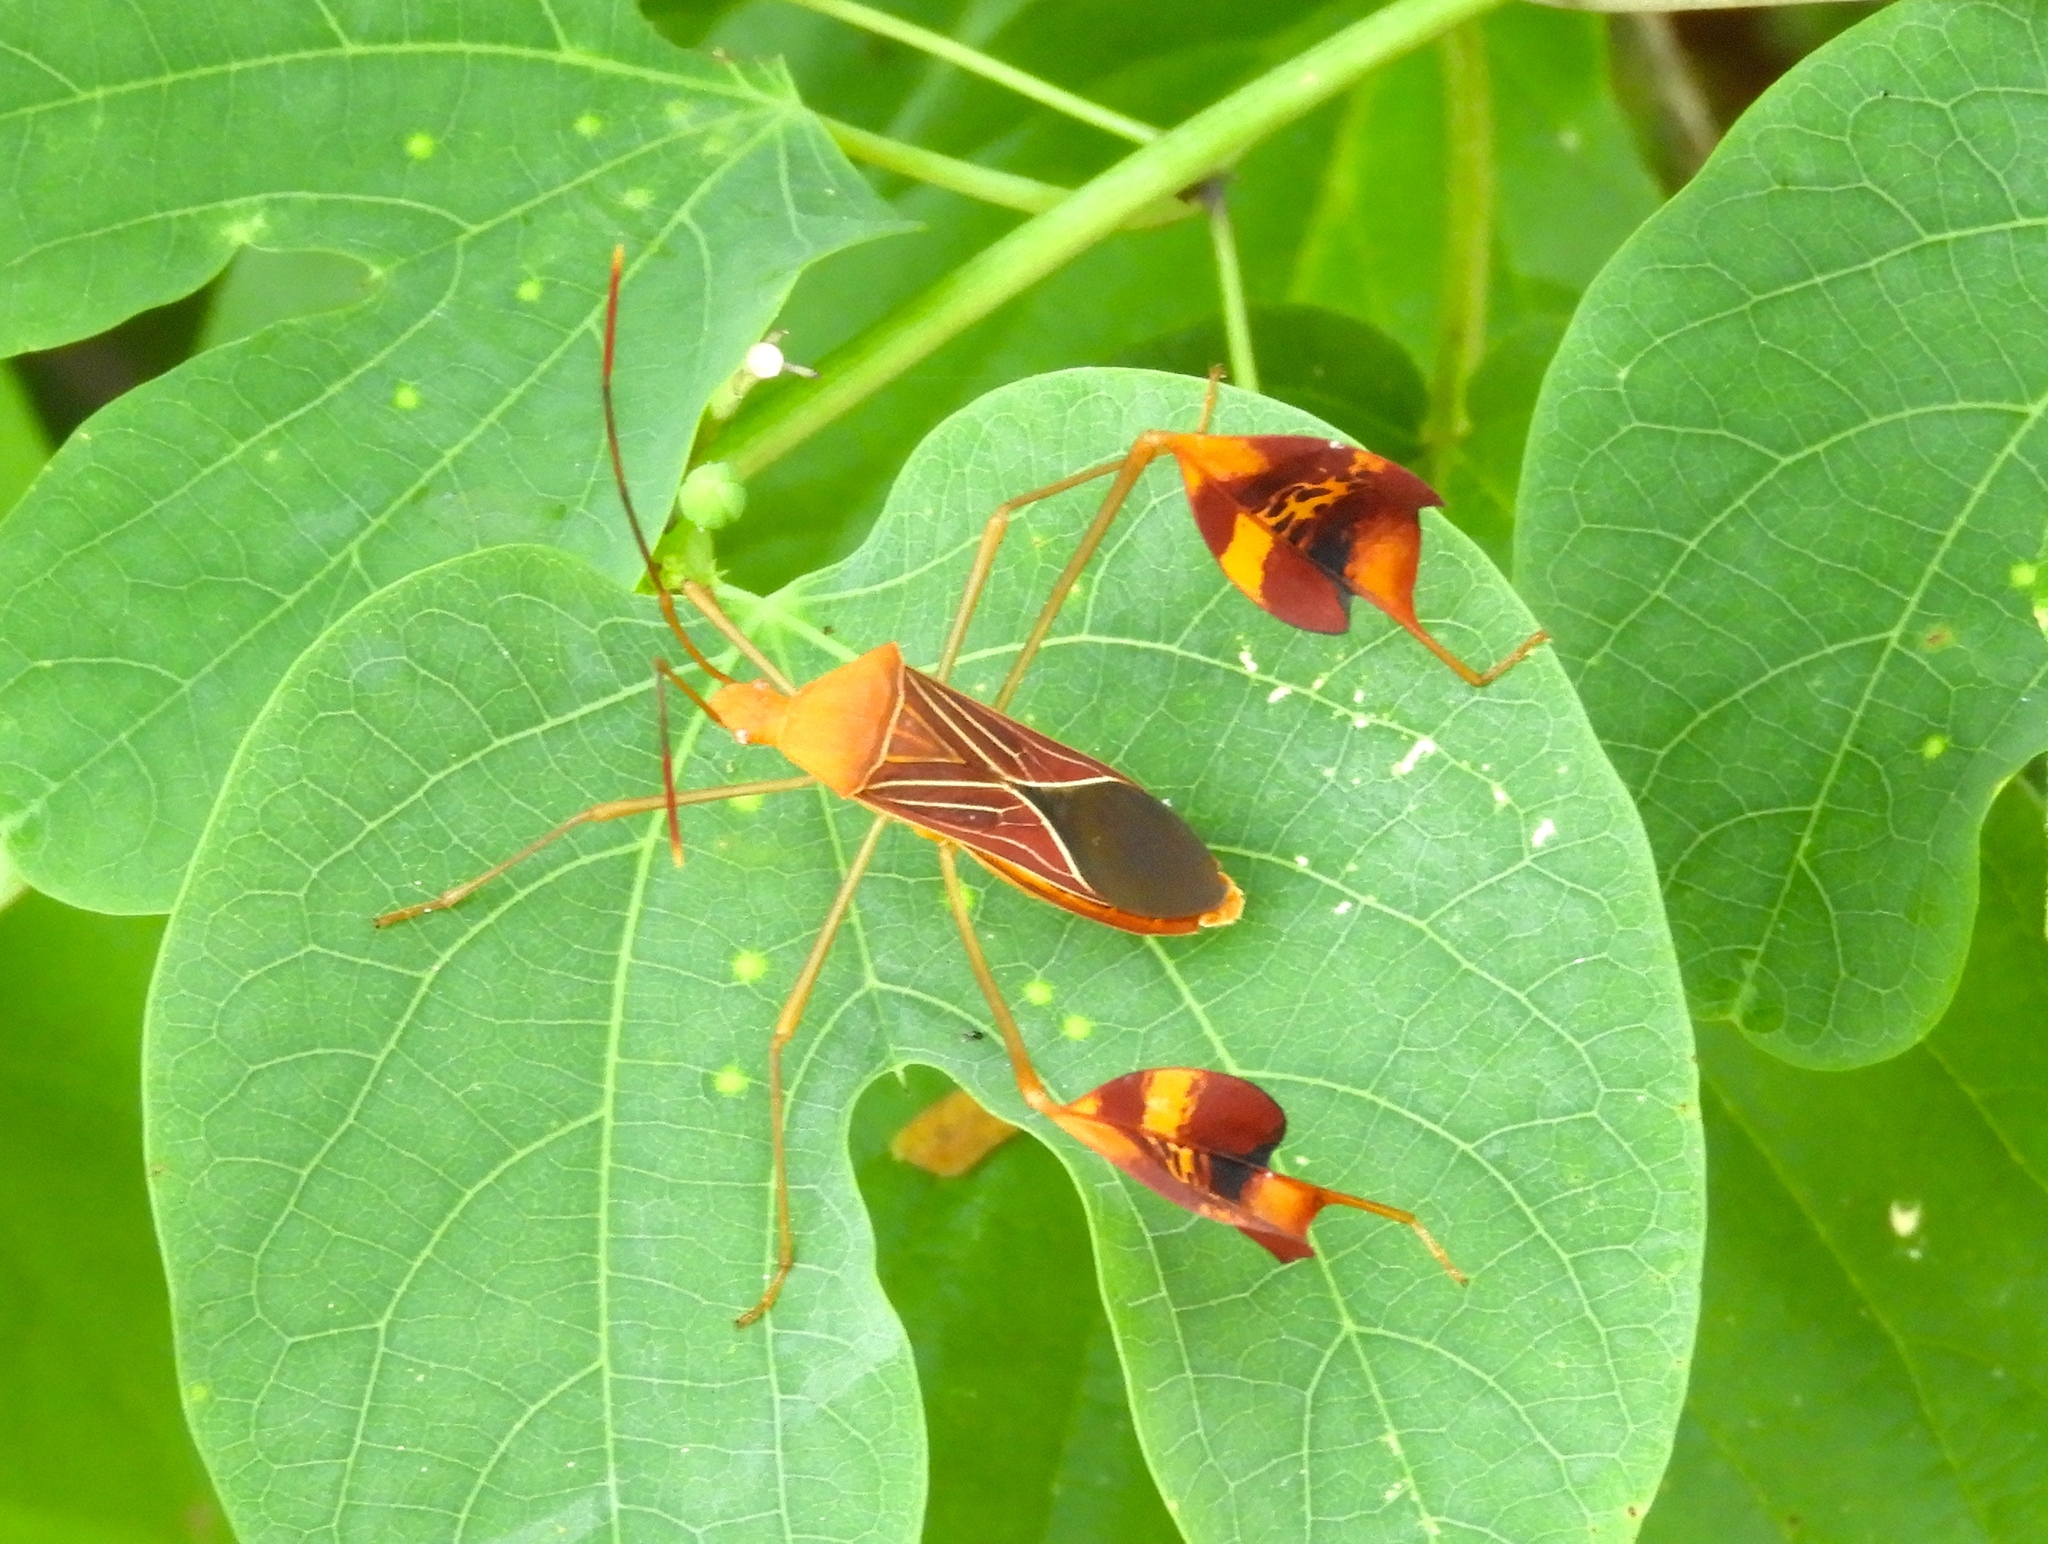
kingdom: Animalia
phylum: Arthropoda
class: Insecta
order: Hemiptera
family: Coreidae
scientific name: Coreidae
